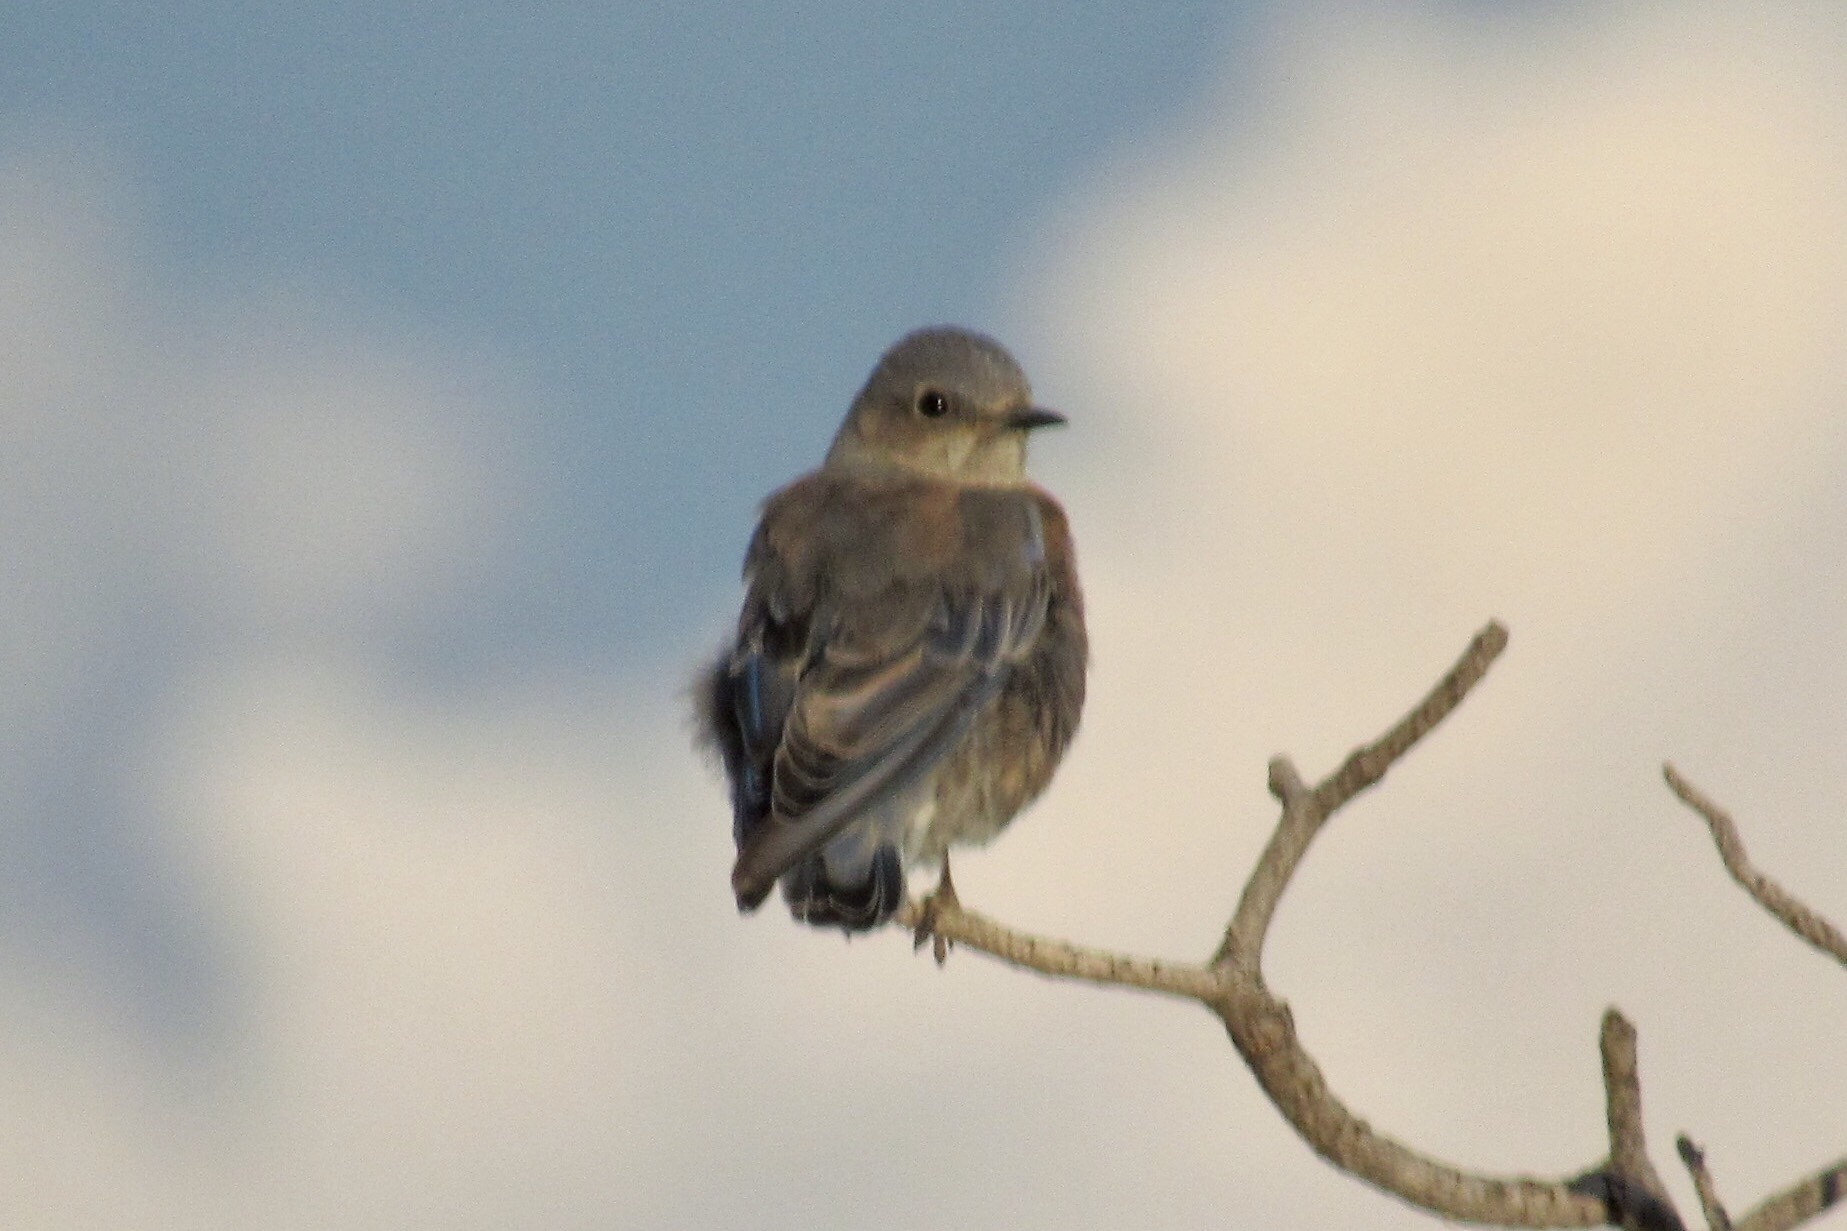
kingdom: Animalia
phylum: Chordata
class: Aves
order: Passeriformes
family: Turdidae
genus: Sialia
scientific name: Sialia mexicana
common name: Western bluebird
